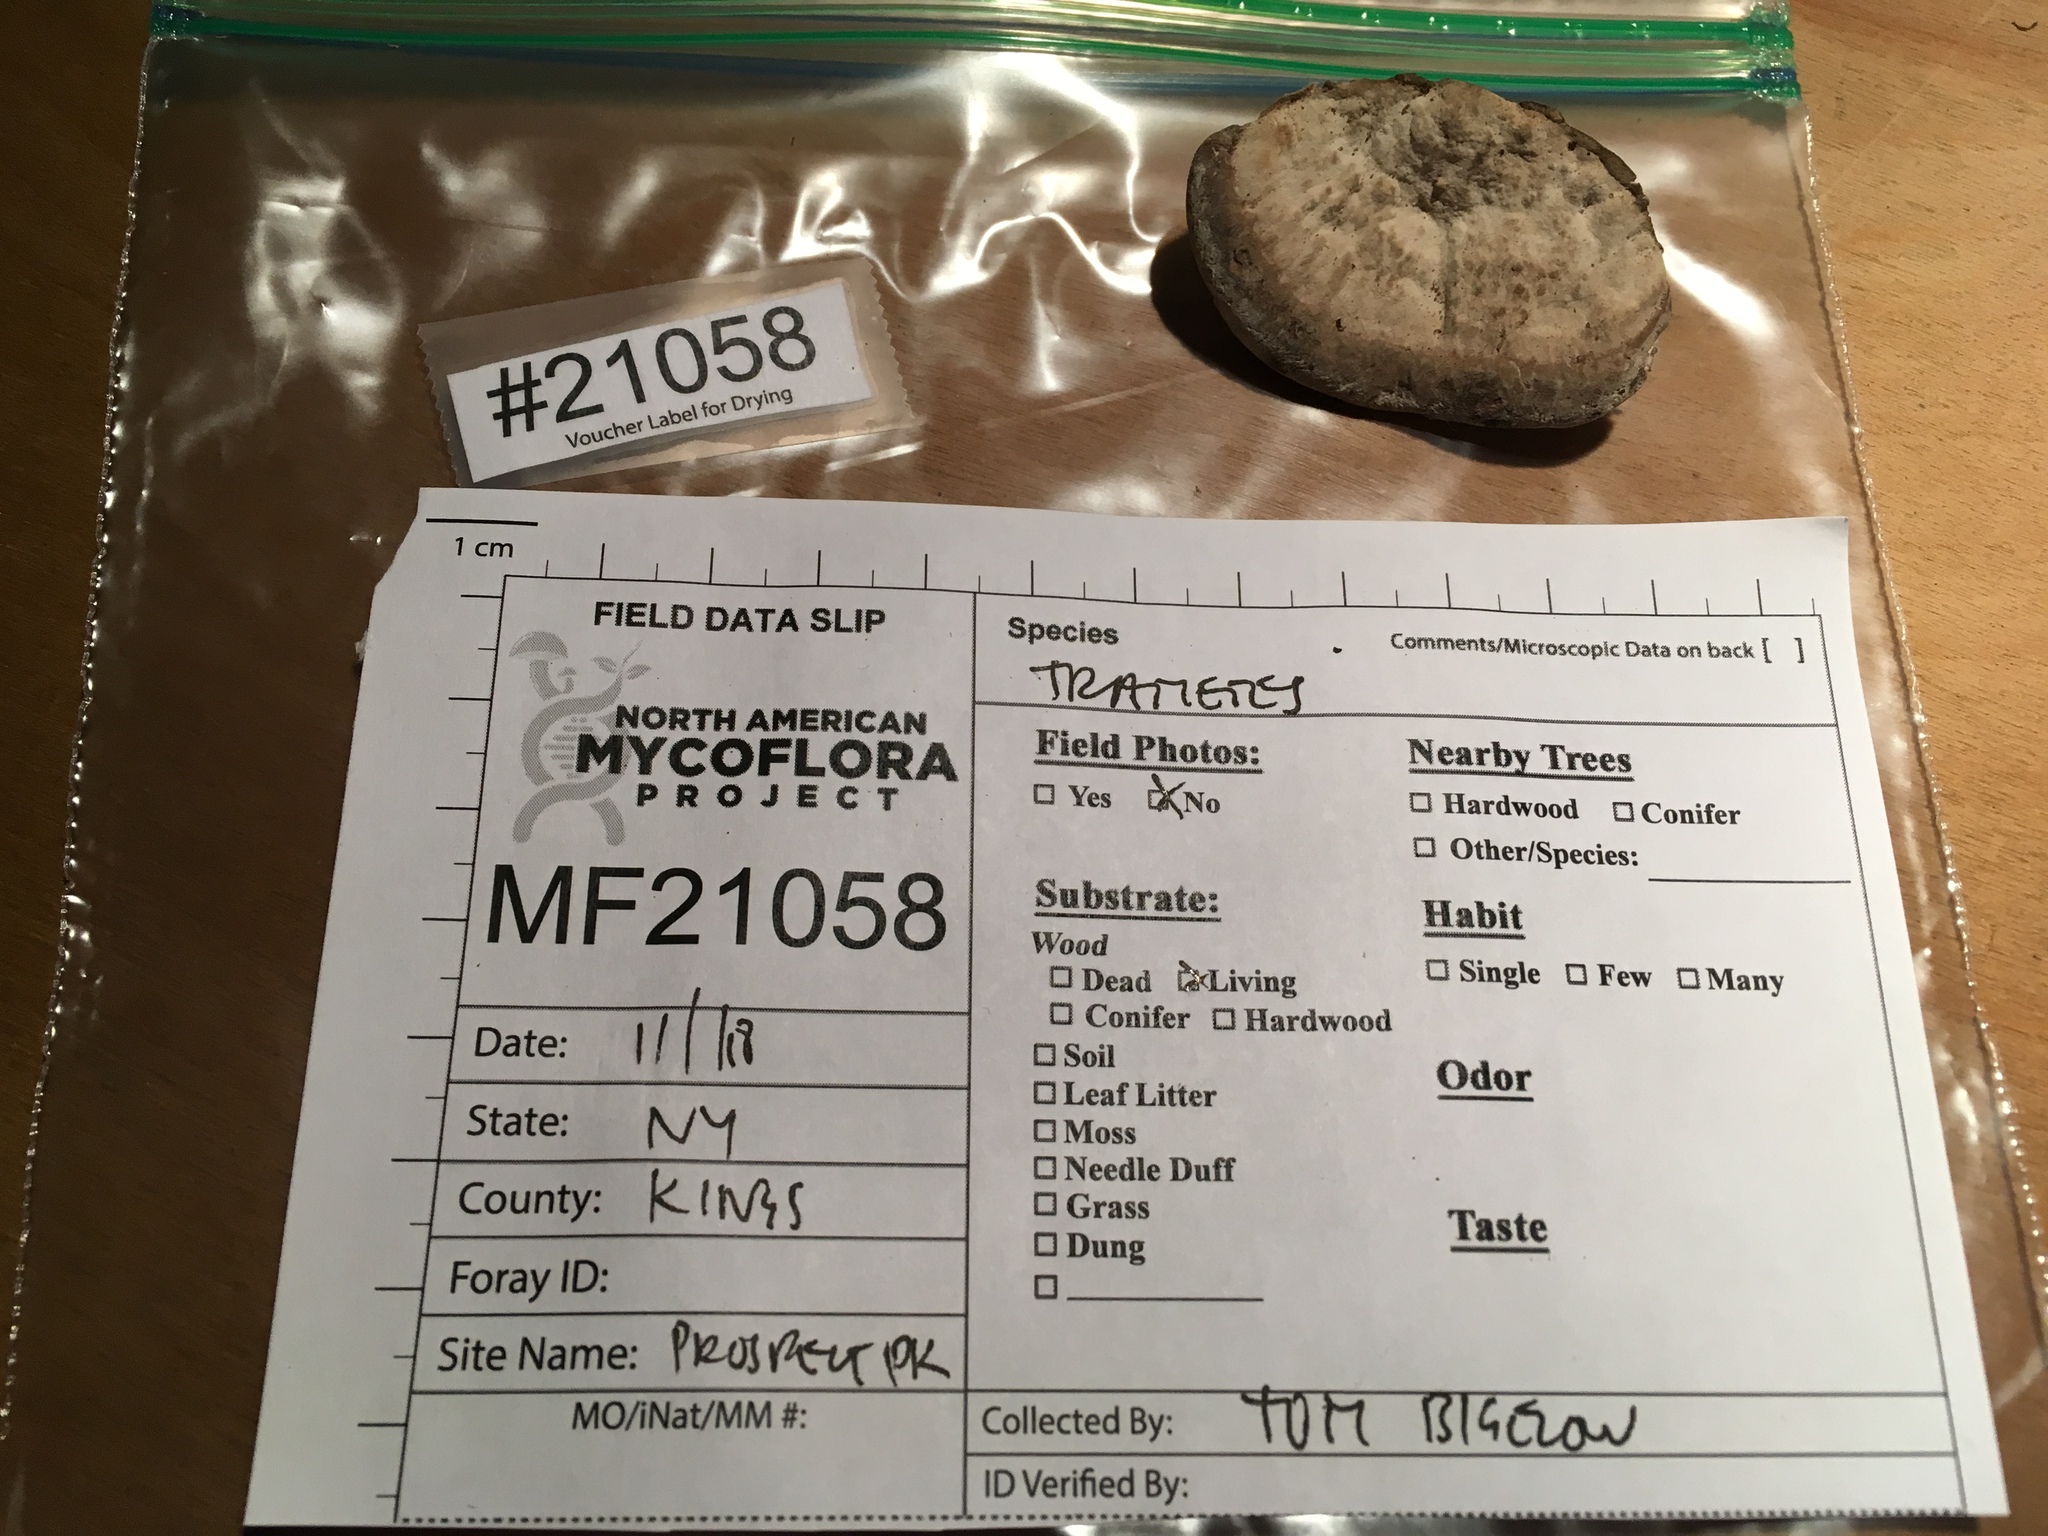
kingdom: Fungi
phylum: Basidiomycota
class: Agaricomycetes
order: Polyporales
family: Polyporaceae
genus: Trametes
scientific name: Trametes lactinea
